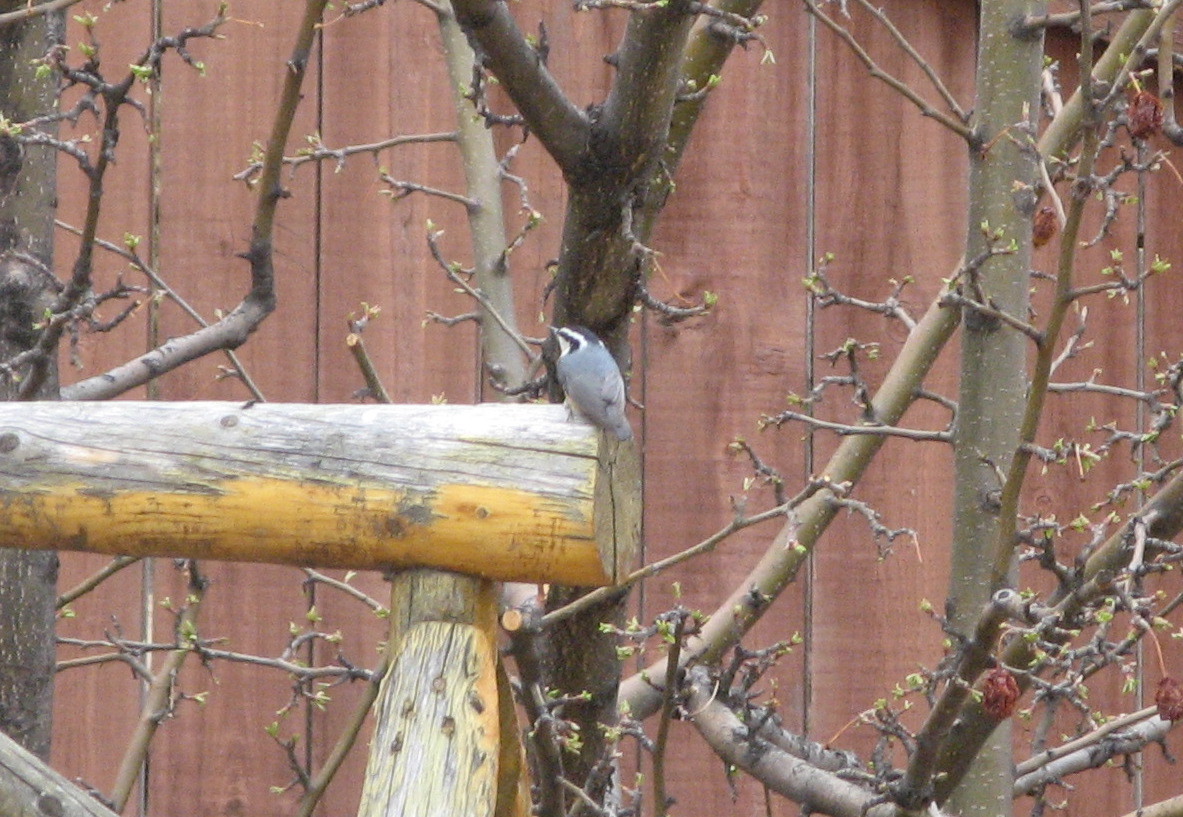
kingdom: Animalia
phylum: Chordata
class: Aves
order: Passeriformes
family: Sittidae
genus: Sitta
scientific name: Sitta canadensis
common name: Red-breasted nuthatch
